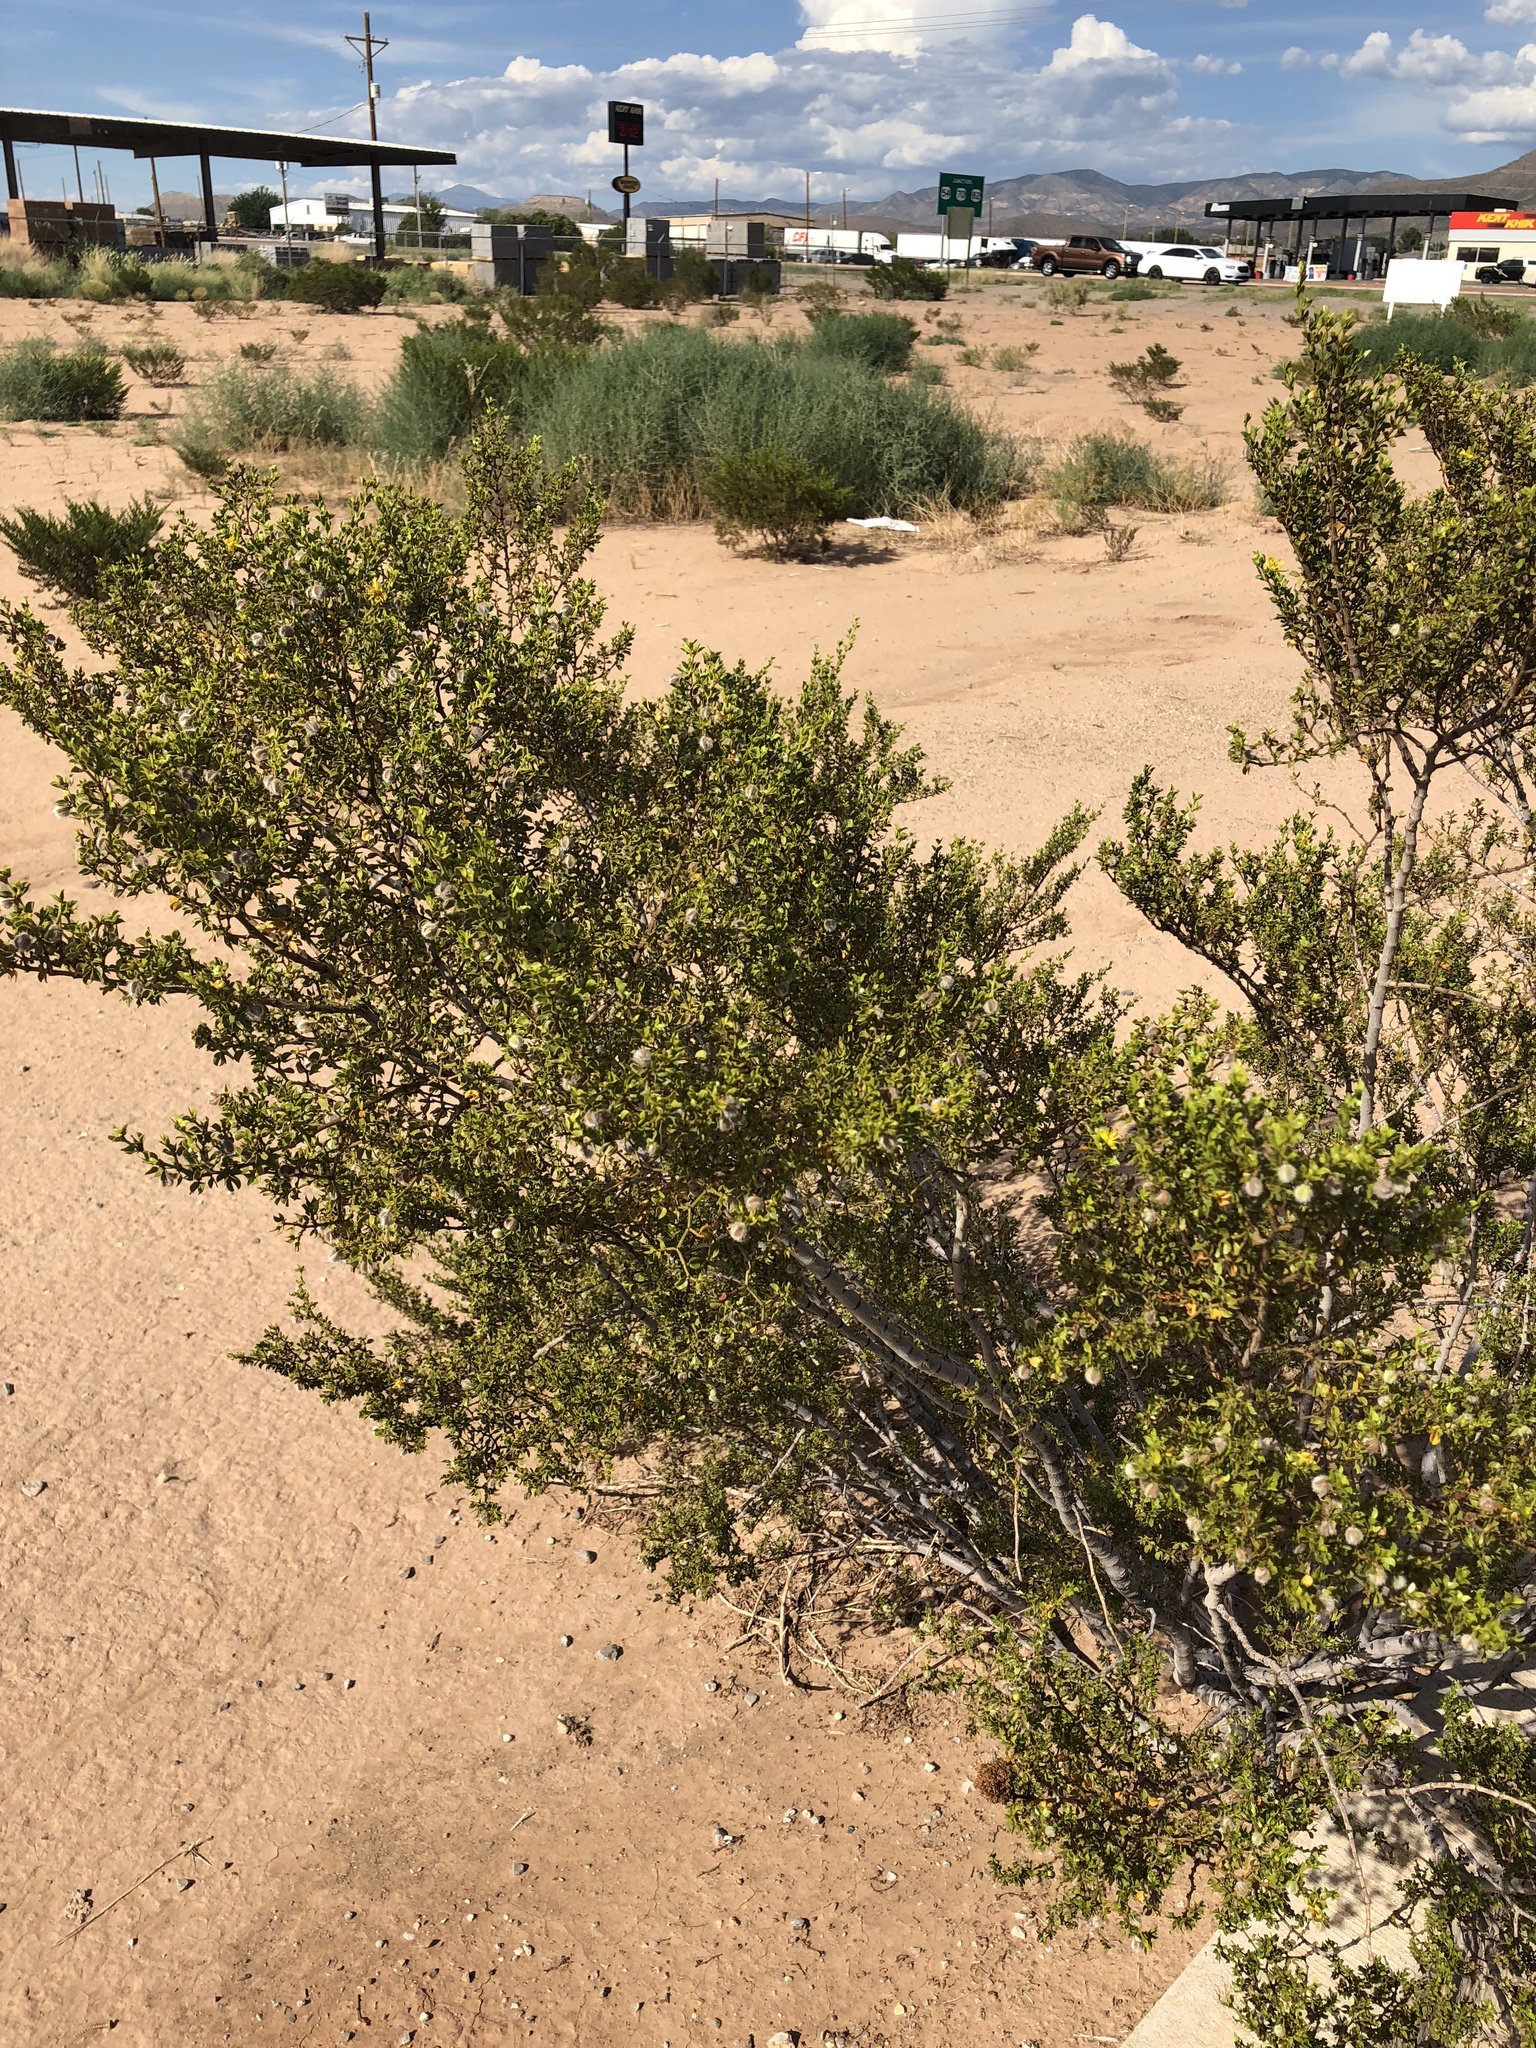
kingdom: Plantae
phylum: Tracheophyta
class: Magnoliopsida
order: Zygophyllales
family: Zygophyllaceae
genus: Larrea
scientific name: Larrea tridentata
